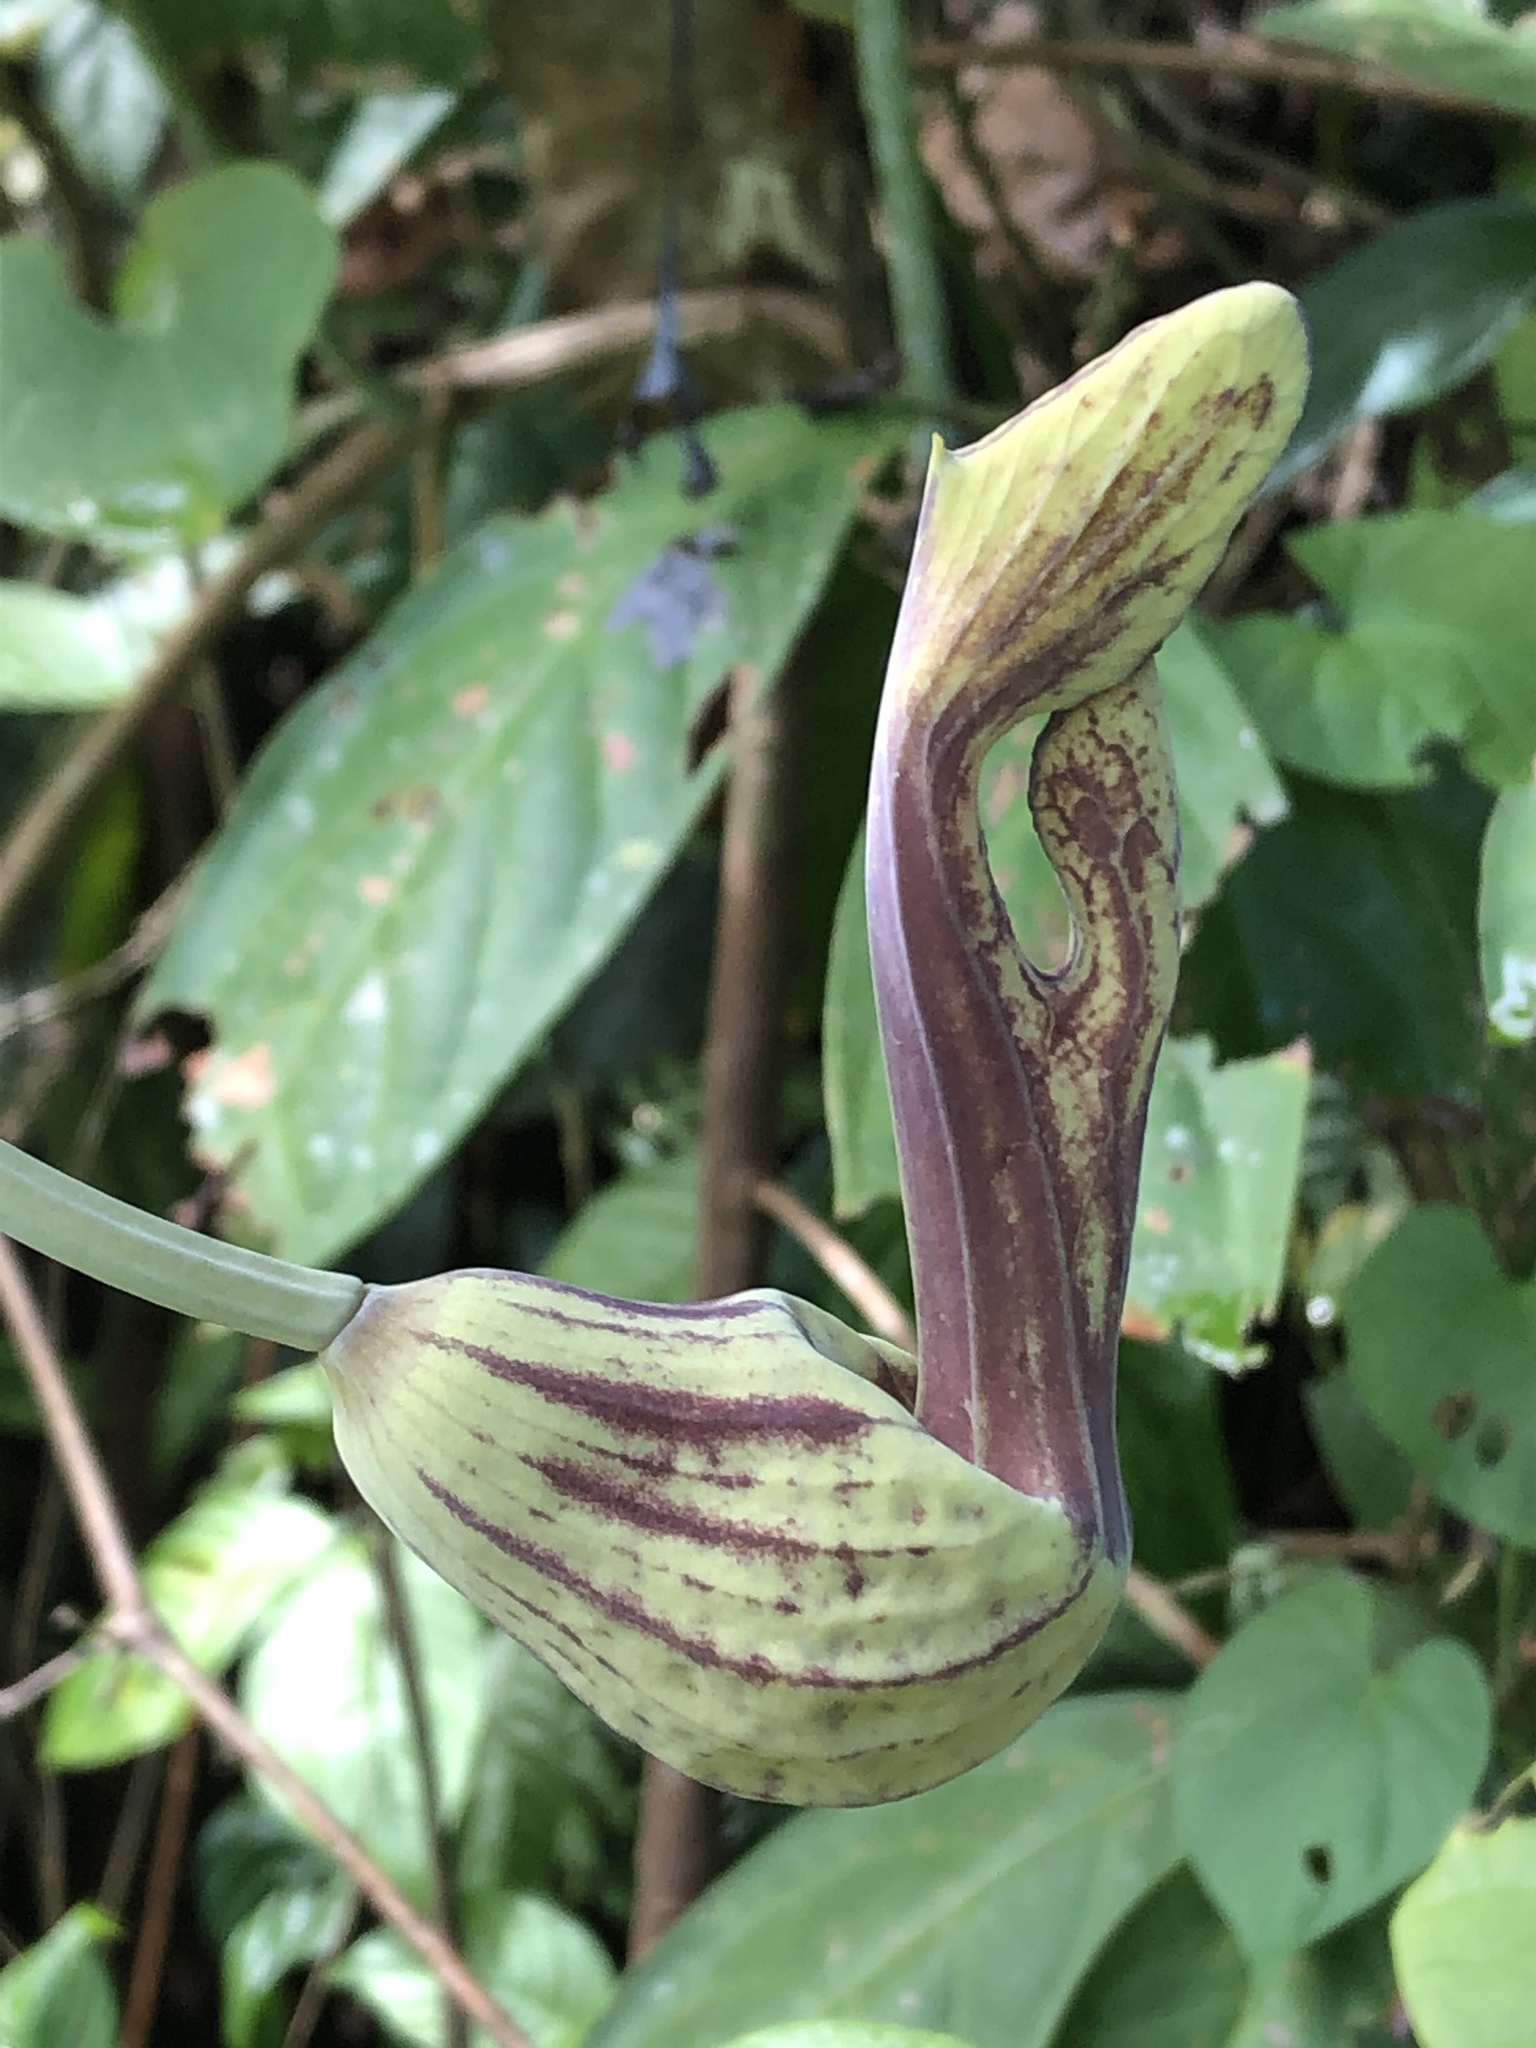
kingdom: Plantae
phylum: Tracheophyta
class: Magnoliopsida
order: Piperales
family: Aristolochiaceae
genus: Aristolochia
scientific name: Aristolochia didyma
